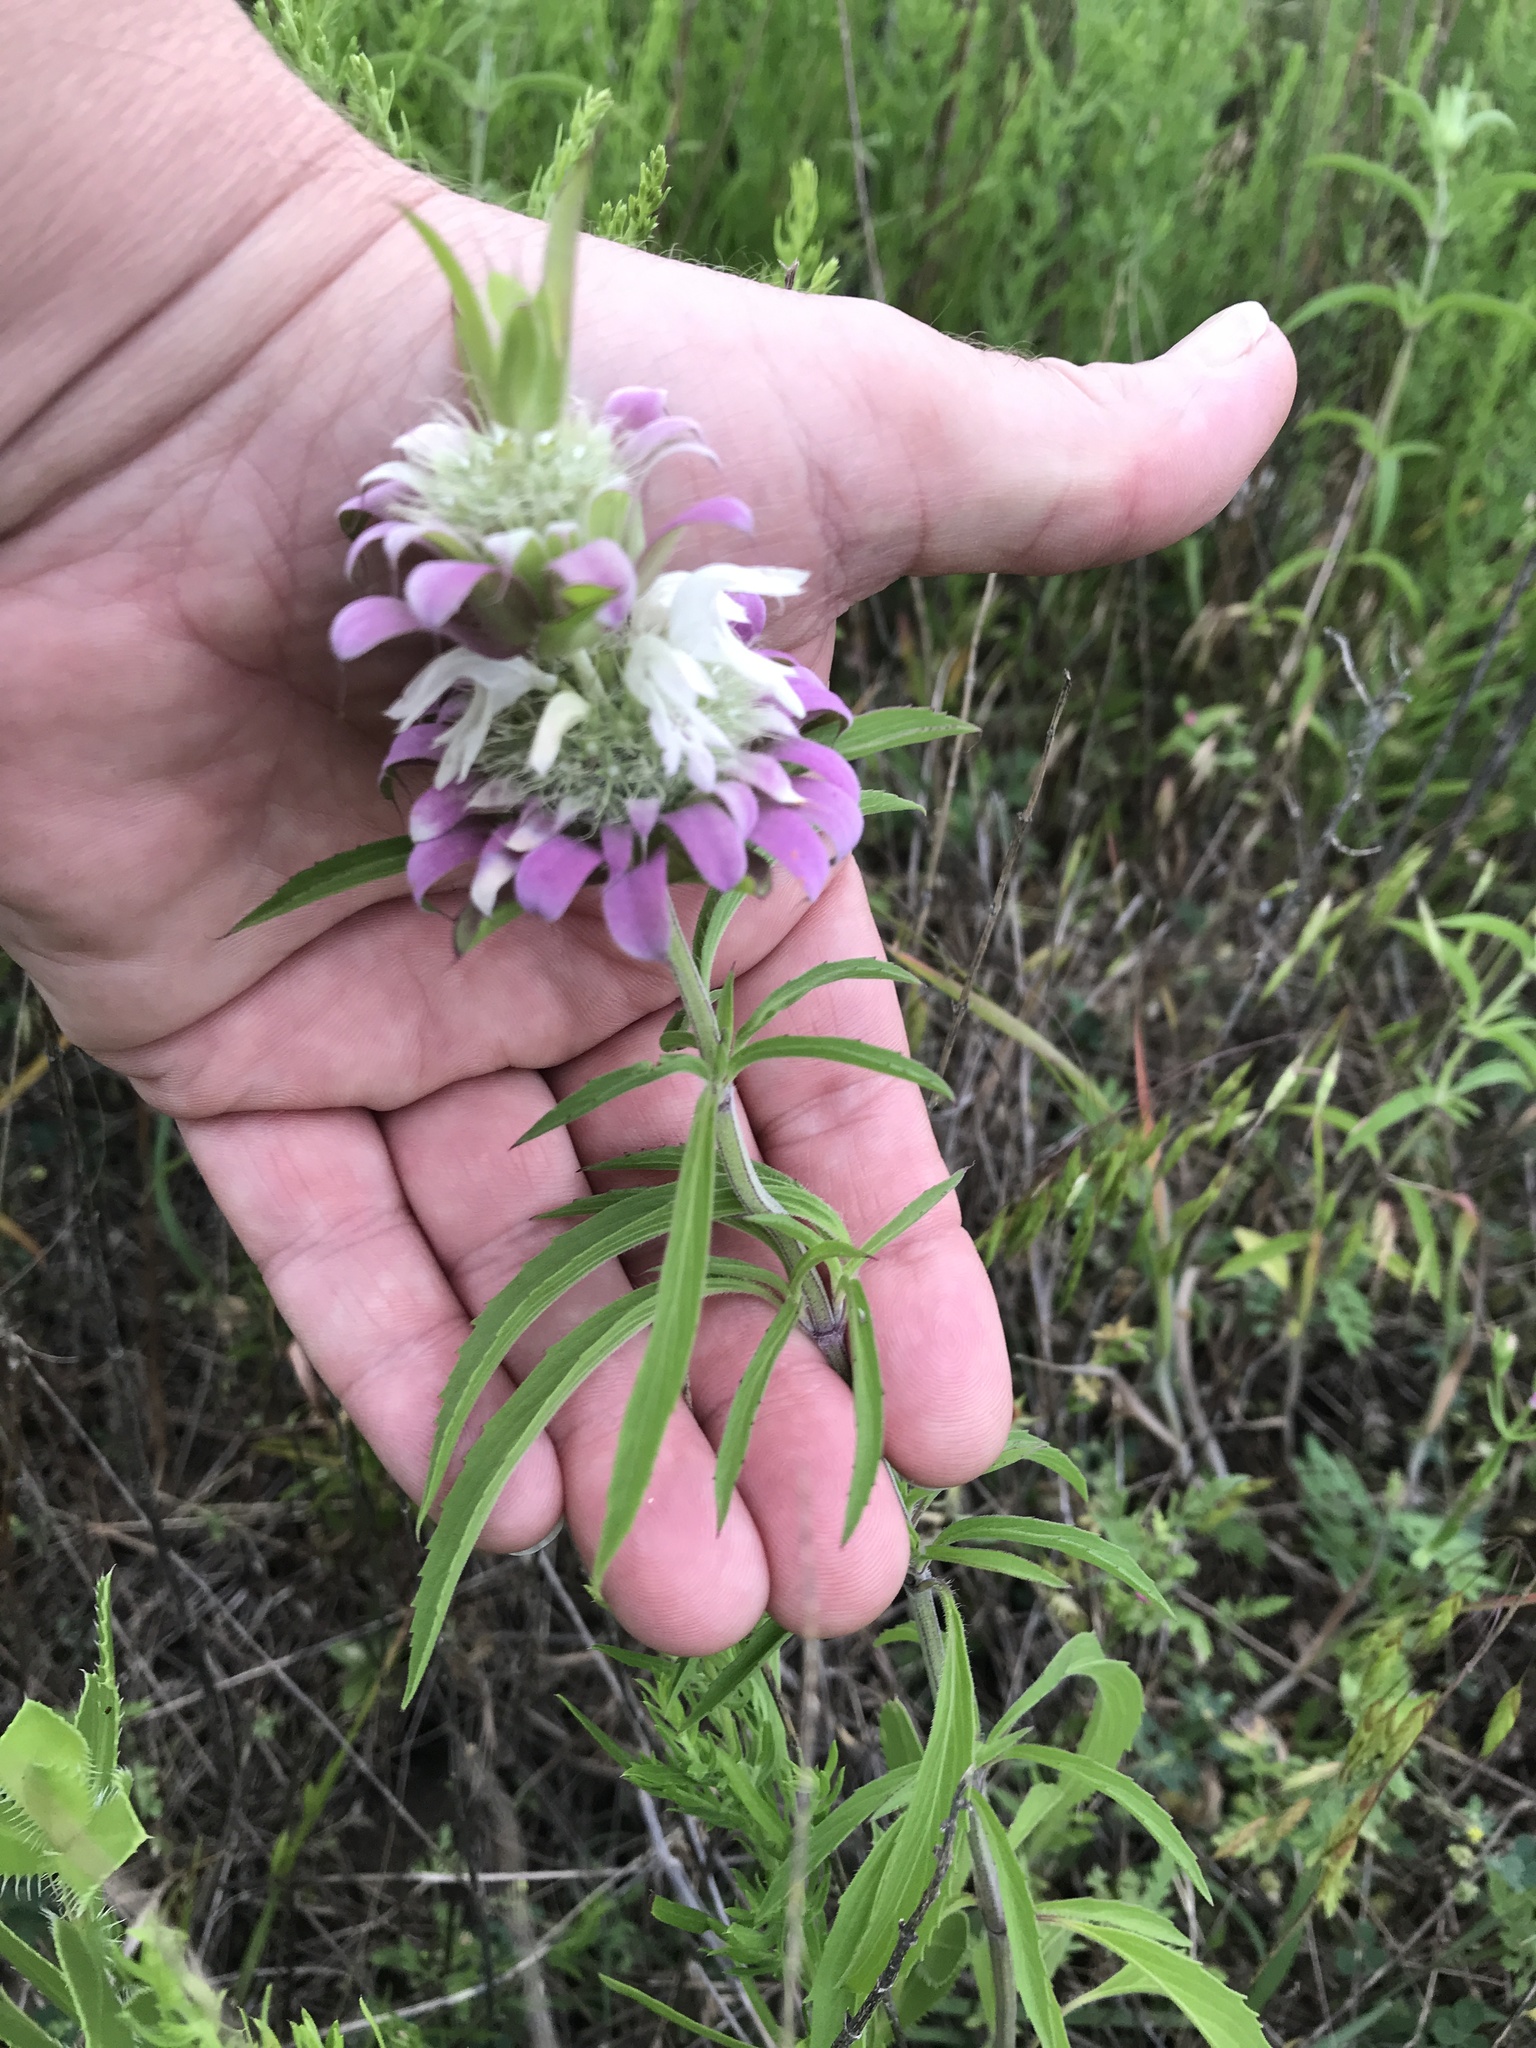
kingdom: Plantae
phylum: Tracheophyta
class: Magnoliopsida
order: Lamiales
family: Lamiaceae
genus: Monarda
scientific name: Monarda citriodora
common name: Lemon beebalm
